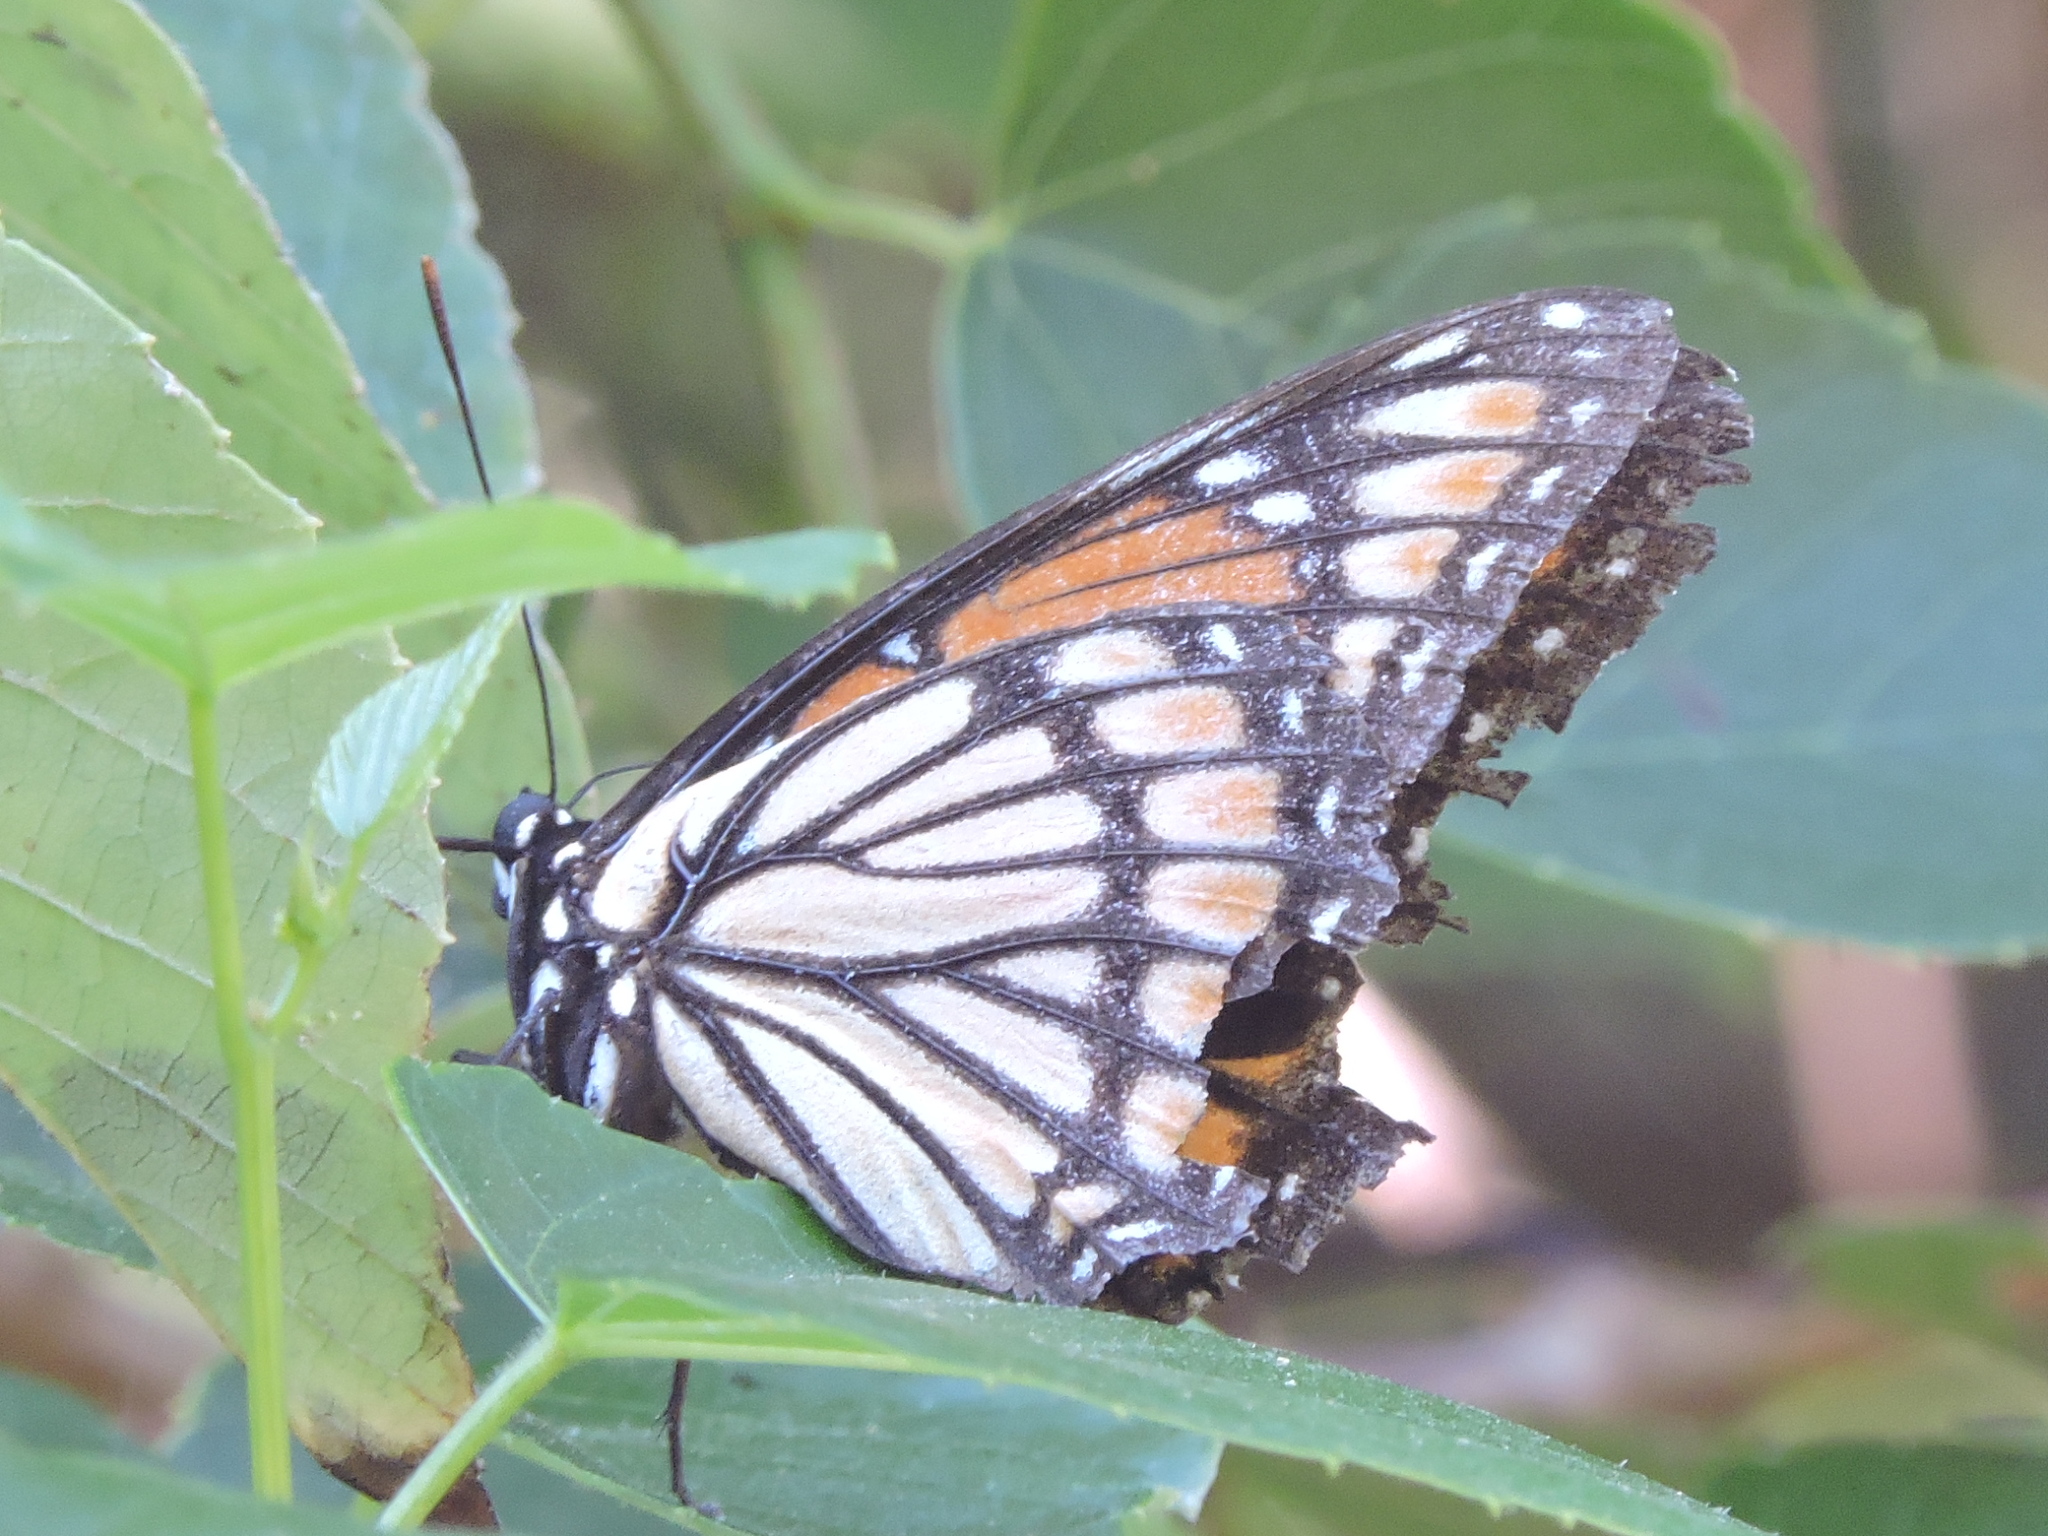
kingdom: Animalia
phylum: Arthropoda
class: Insecta
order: Lepidoptera
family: Nymphalidae
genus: Limenitis
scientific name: Limenitis archippus
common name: Viceroy
